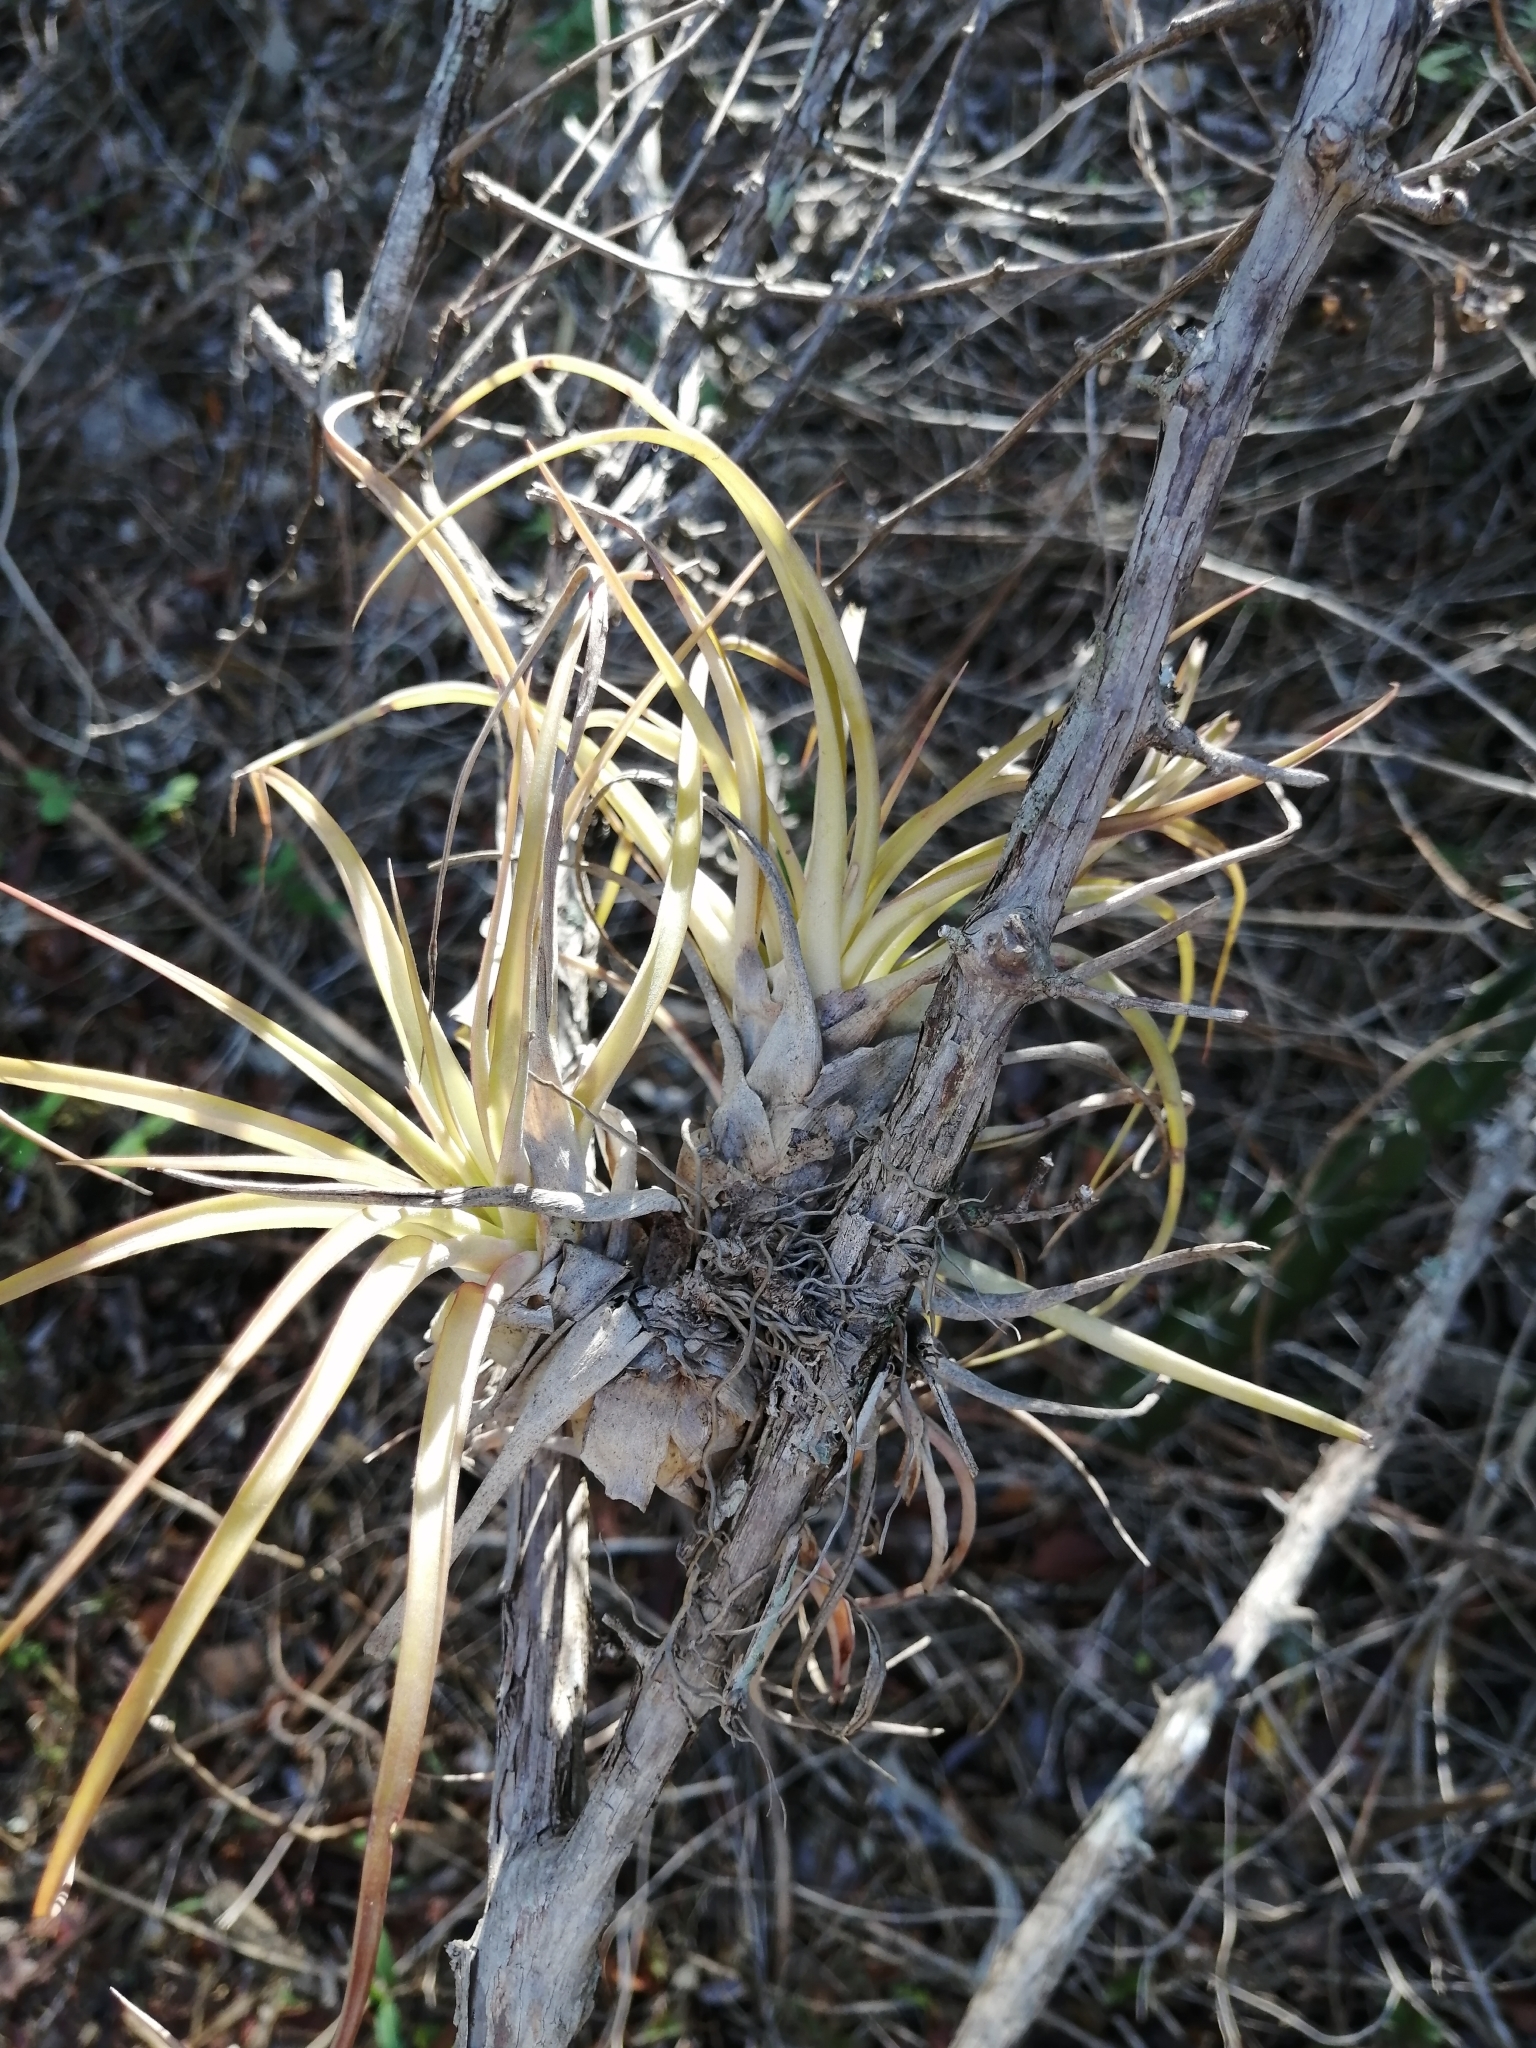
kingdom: Plantae
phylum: Tracheophyta
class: Liliopsida
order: Poales
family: Bromeliaceae
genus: Tillandsia
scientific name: Tillandsia schiedeana
